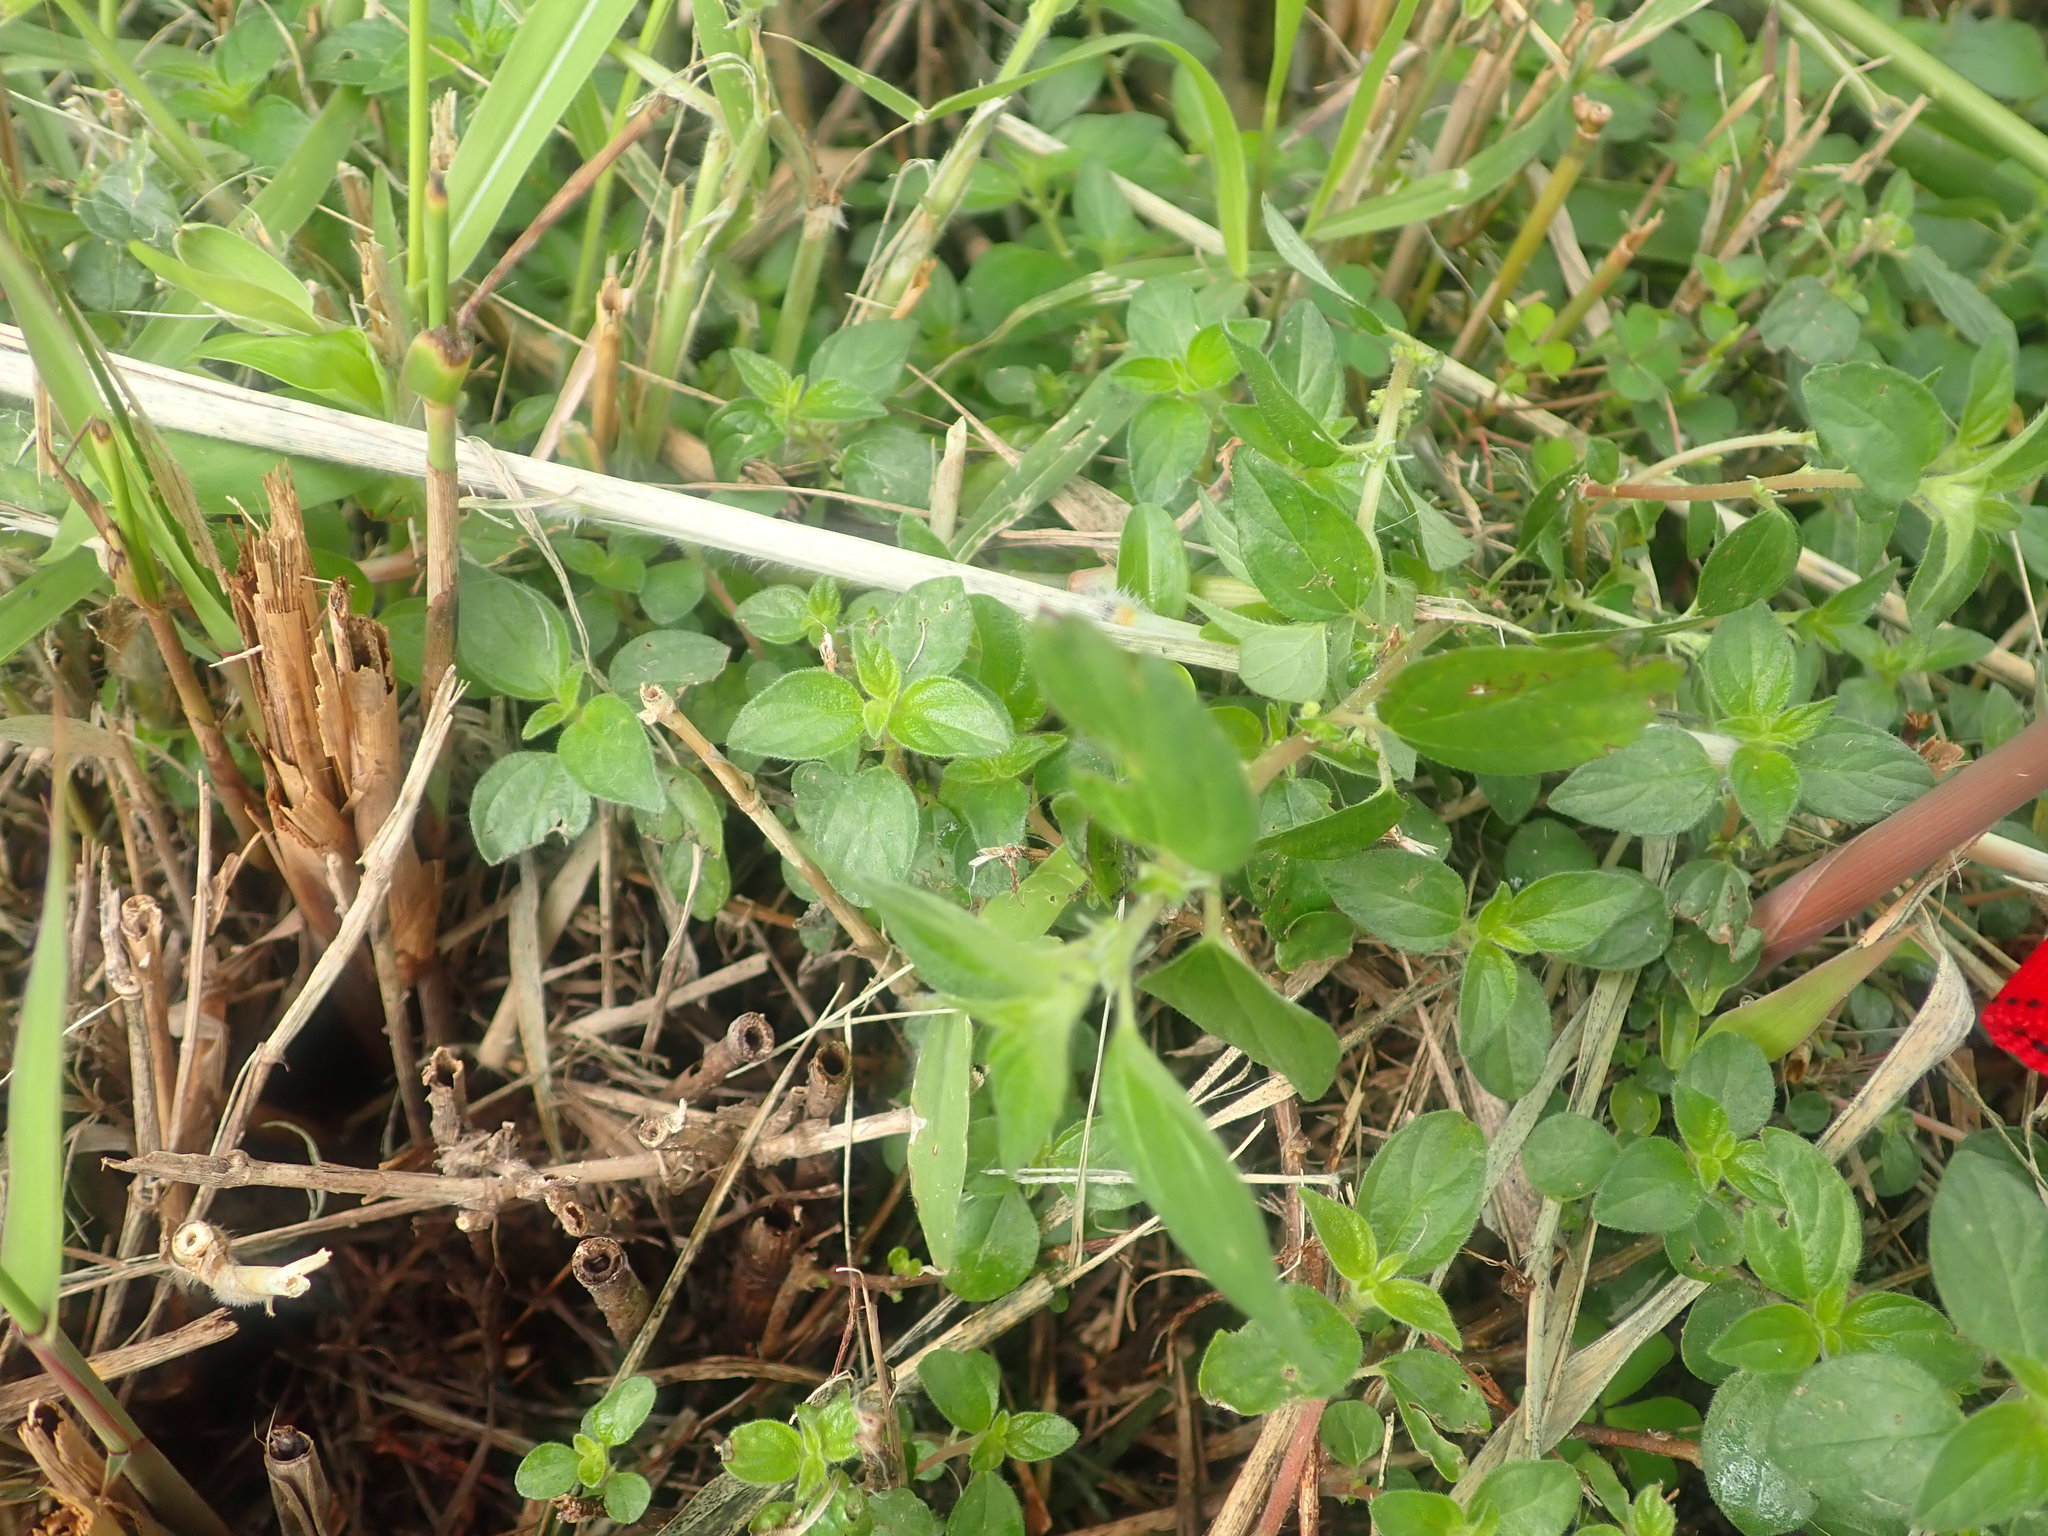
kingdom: Plantae
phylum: Tracheophyta
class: Magnoliopsida
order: Rosales
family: Urticaceae
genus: Pouzolzia
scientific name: Pouzolzia zeylanica
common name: Graceful pouzolzsbush
